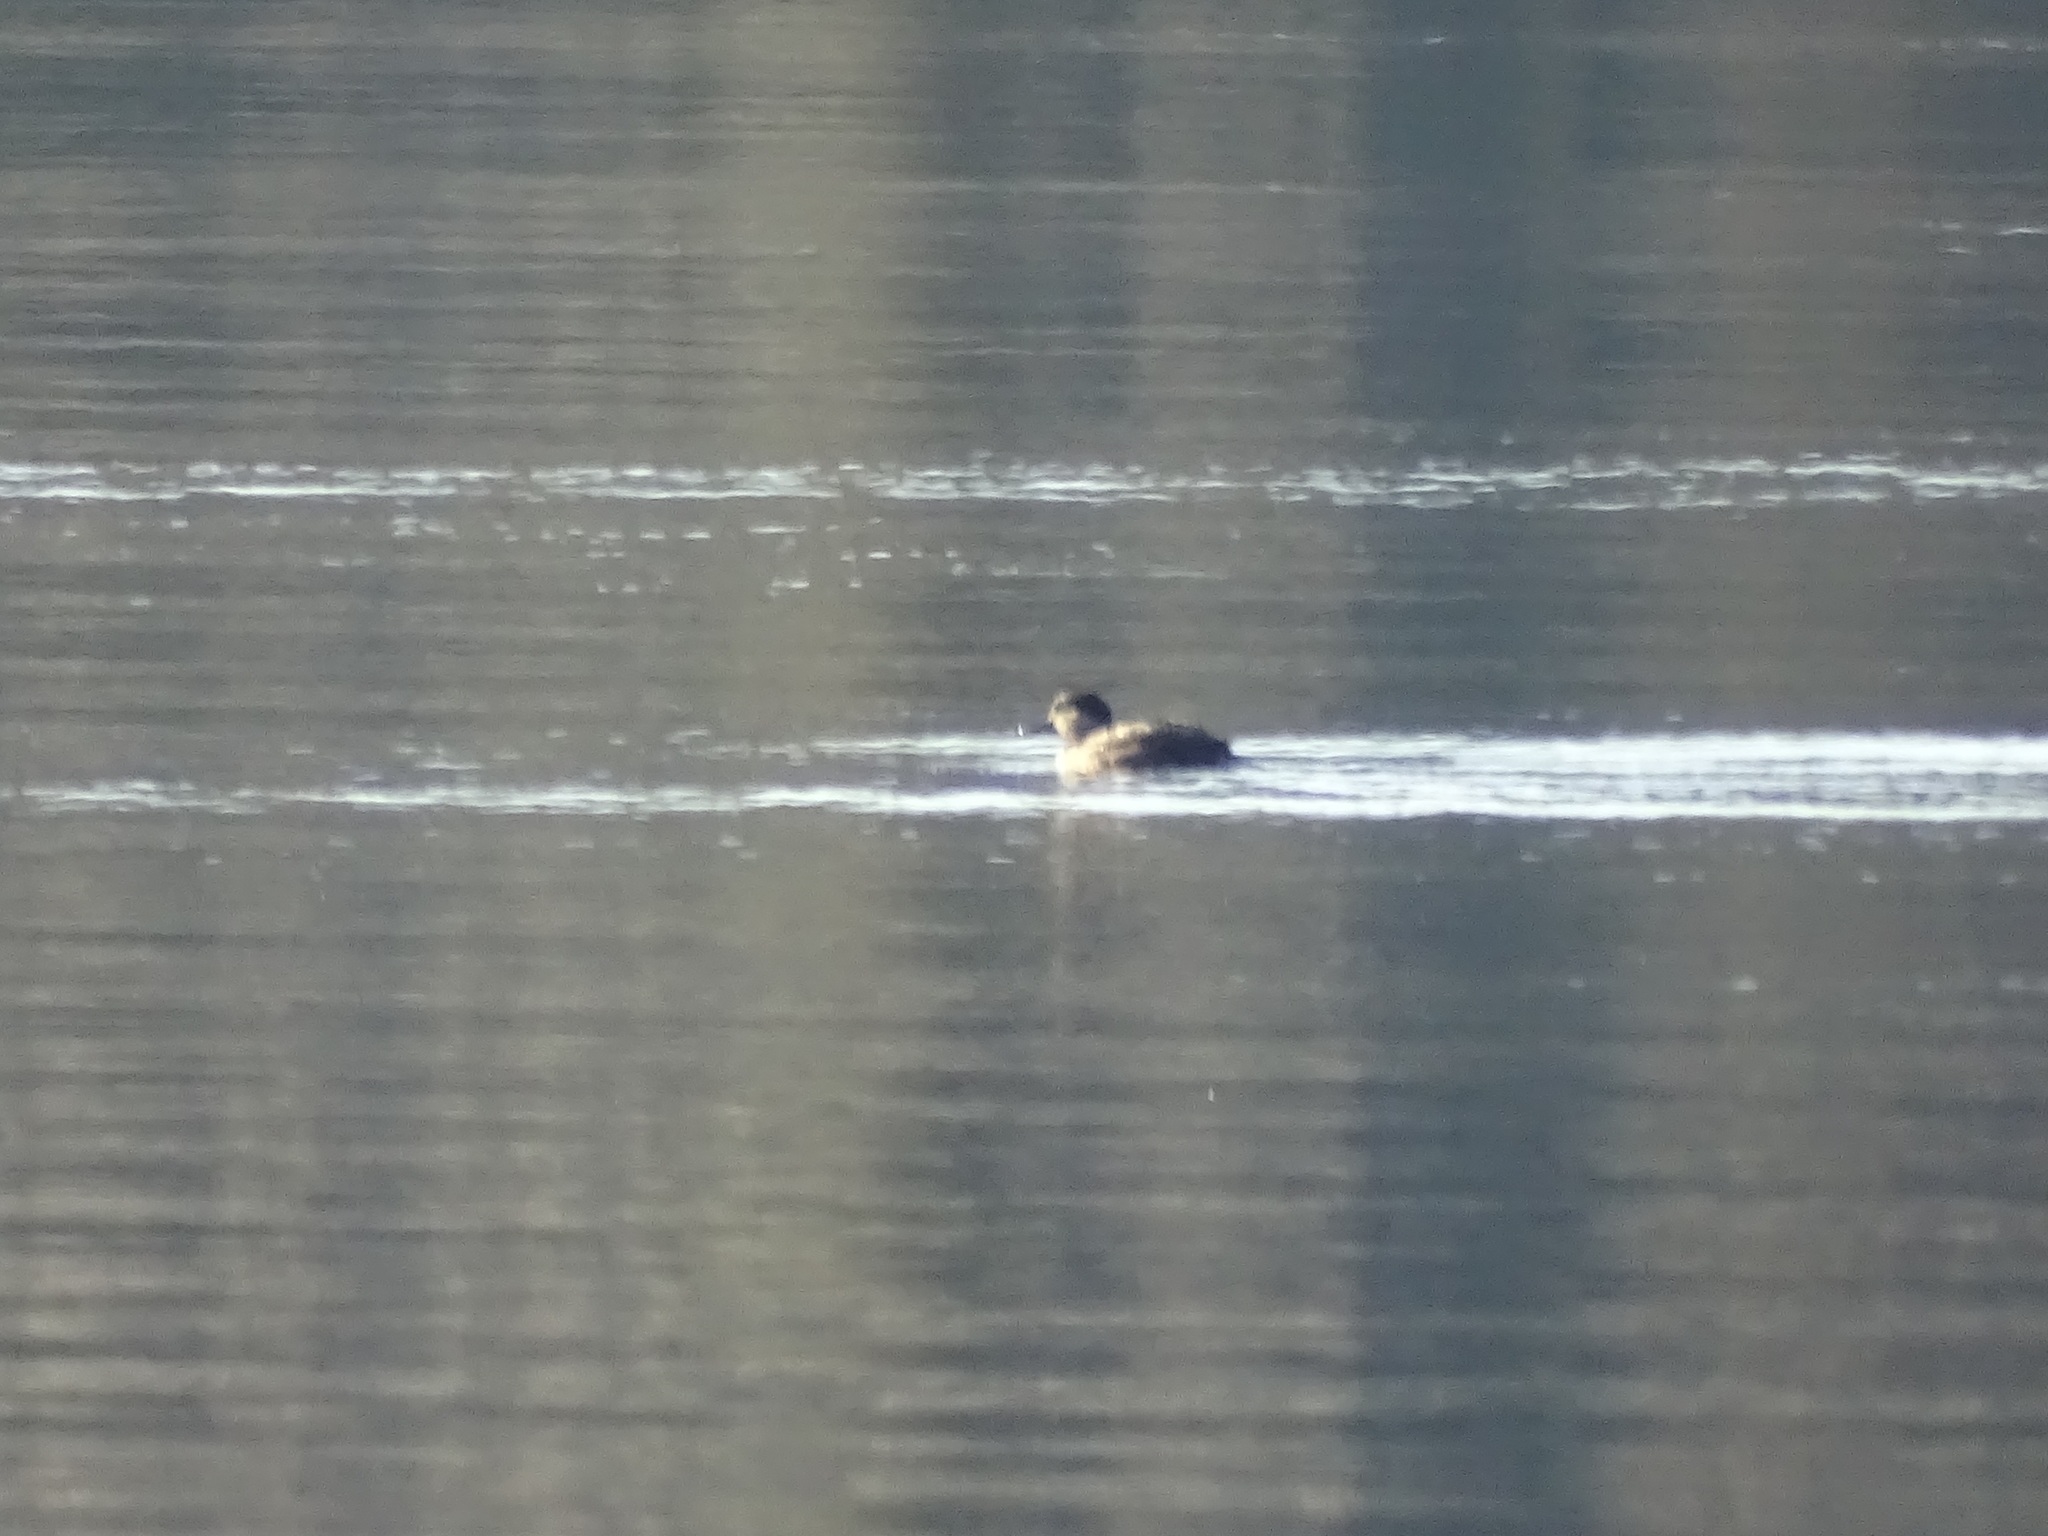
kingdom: Animalia
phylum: Chordata
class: Aves
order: Anseriformes
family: Anatidae
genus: Oxyura
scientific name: Oxyura jamaicensis
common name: Ruddy duck
